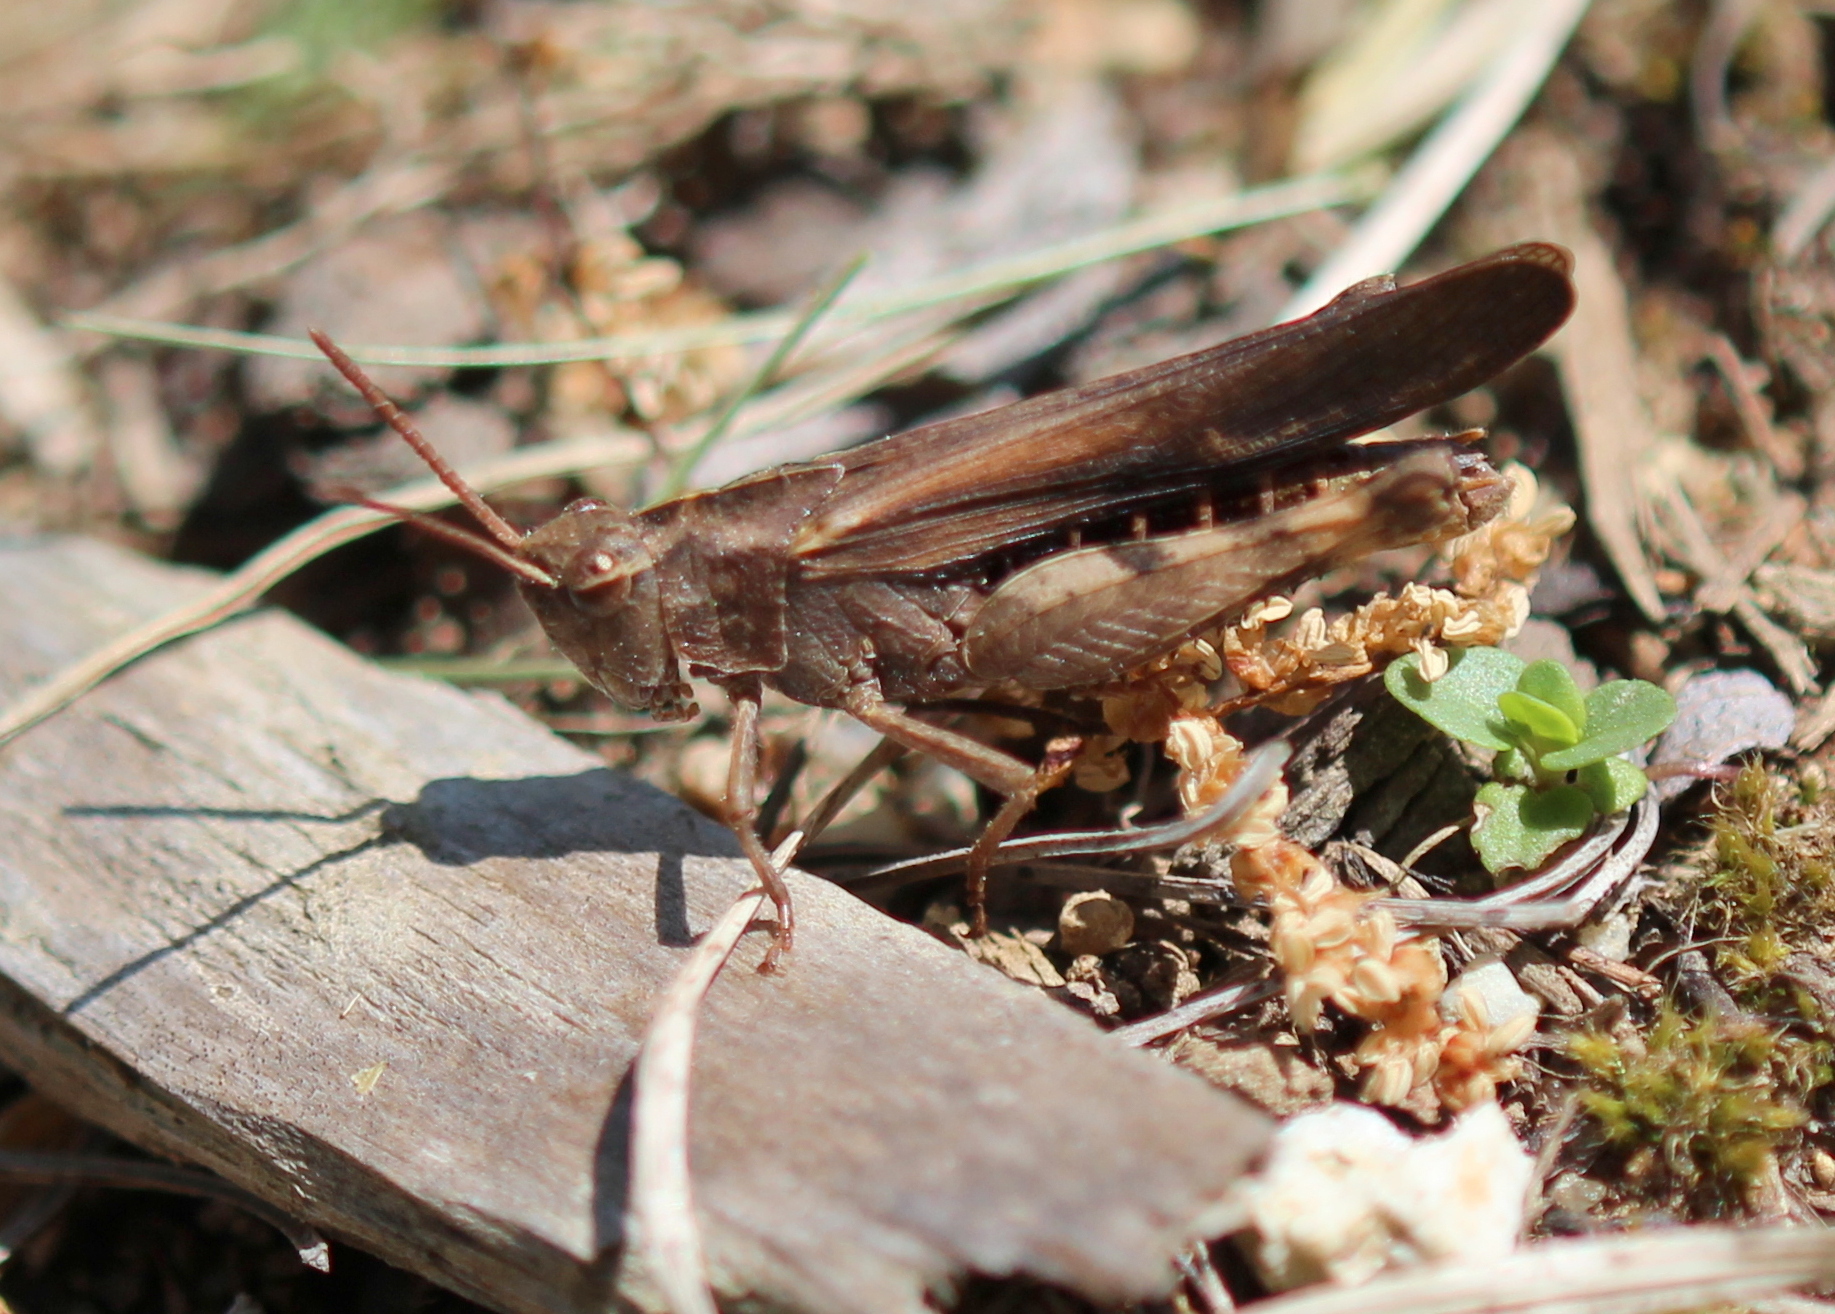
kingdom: Animalia
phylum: Arthropoda
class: Insecta
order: Orthoptera
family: Acrididae
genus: Chortophaga
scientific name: Chortophaga viridifasciata
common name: Green-striped grasshopper
